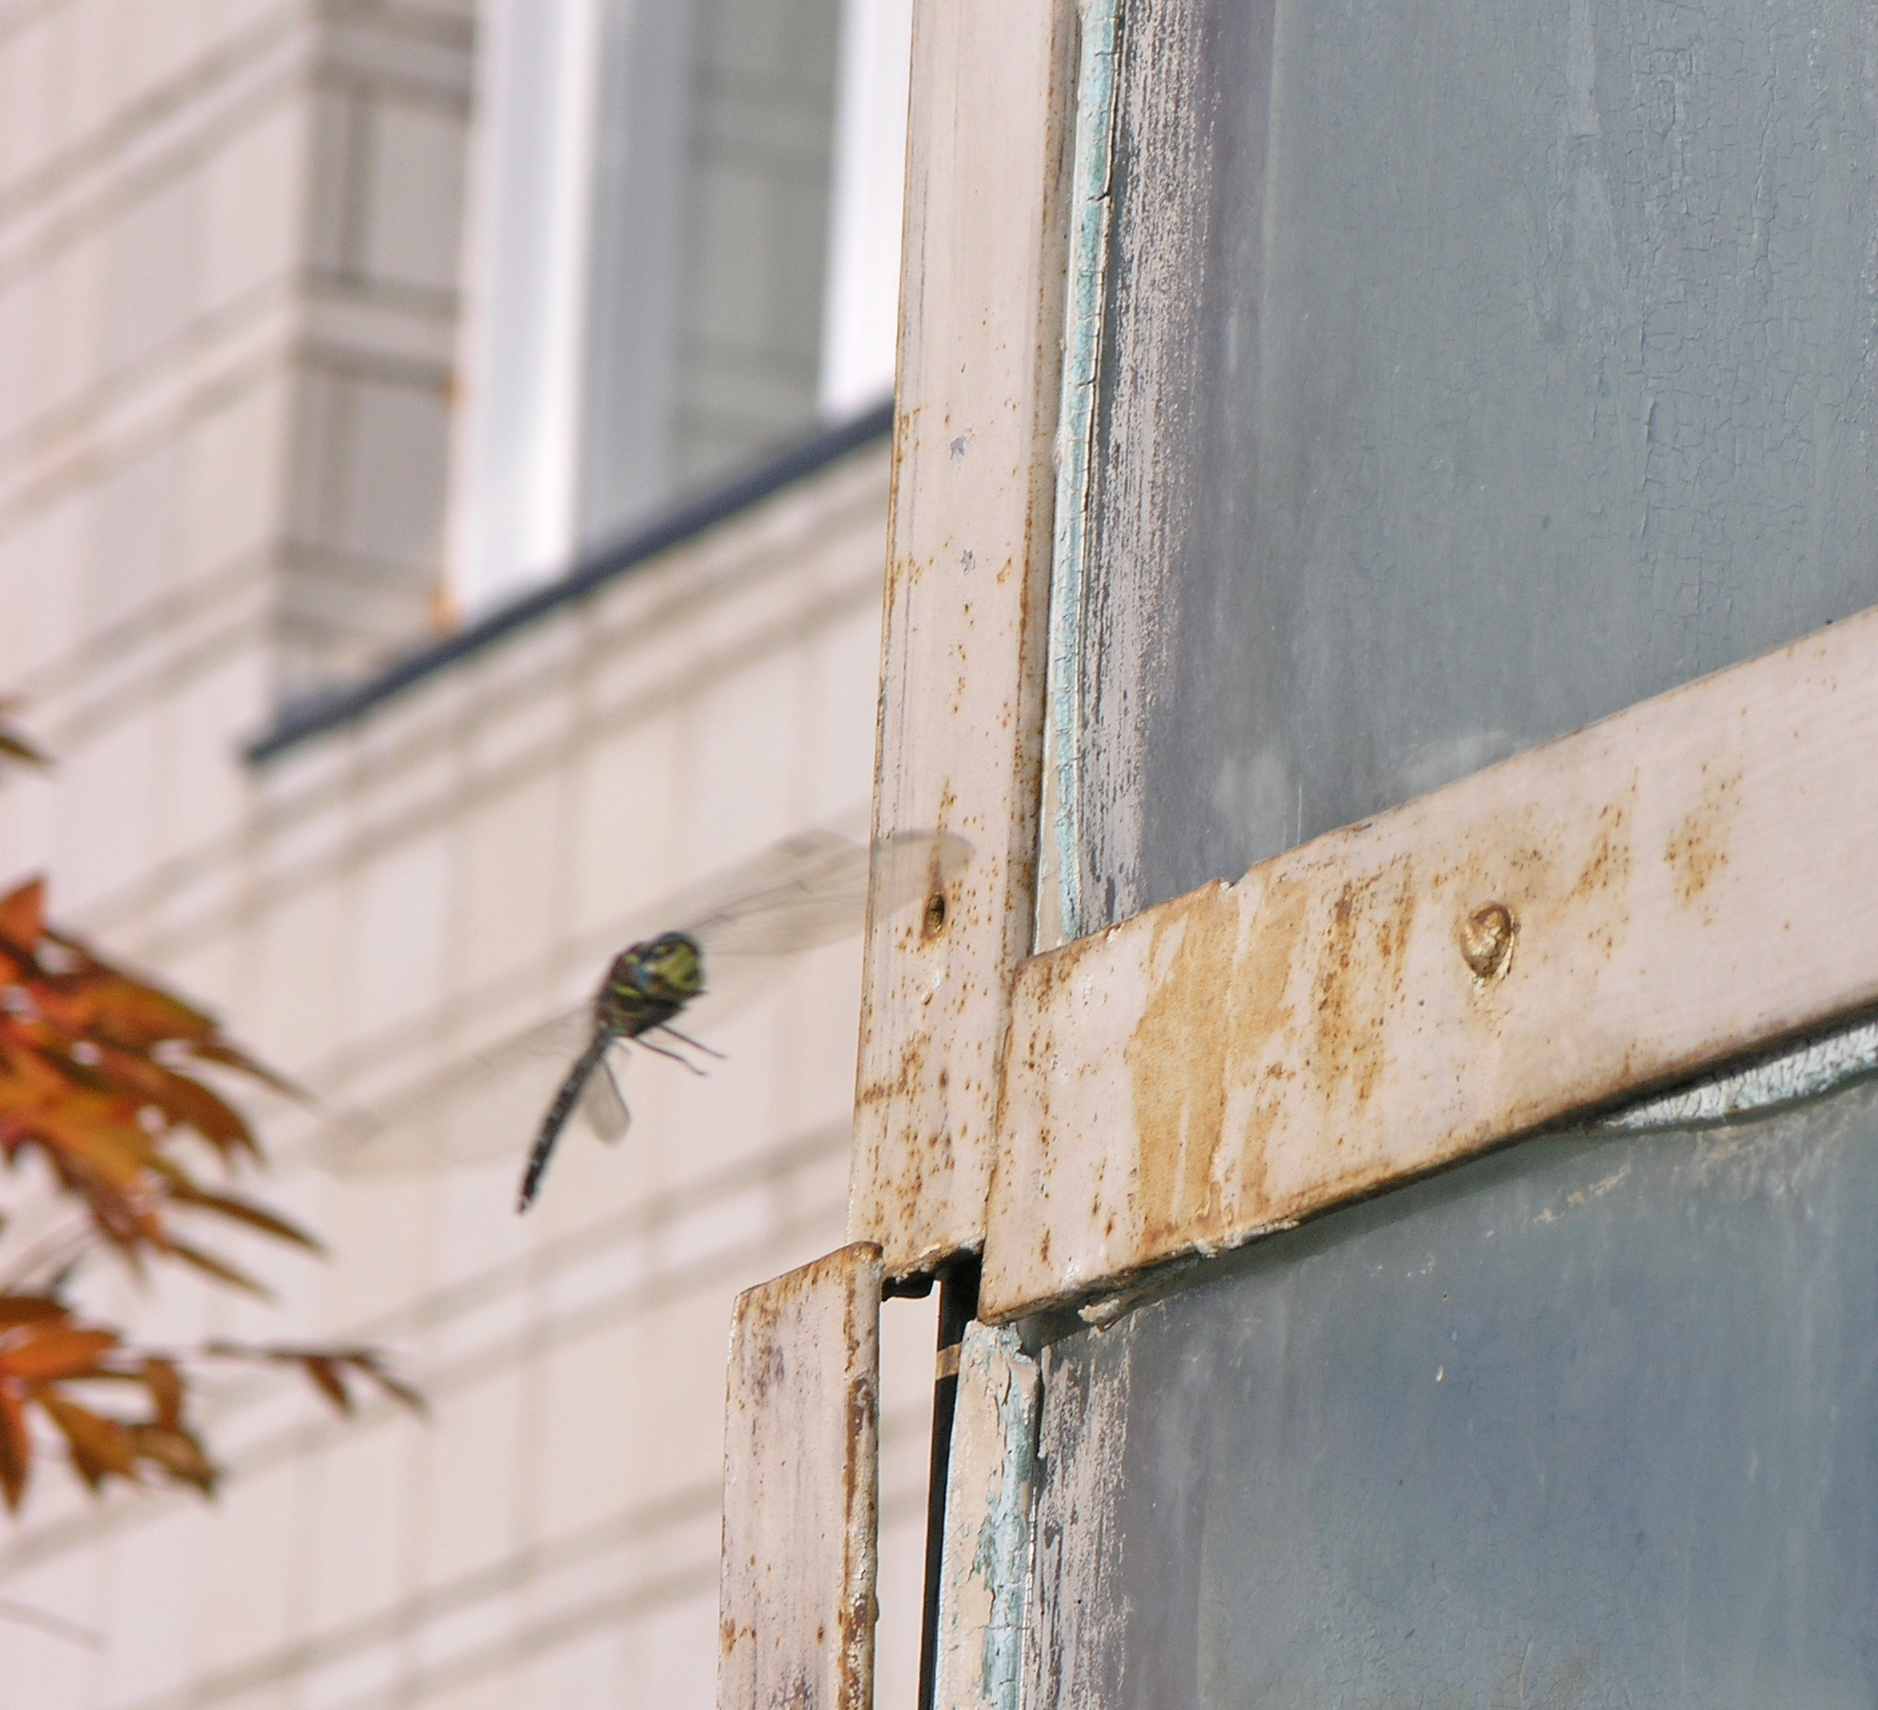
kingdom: Animalia
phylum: Arthropoda
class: Insecta
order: Odonata
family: Aeshnidae
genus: Aeshna
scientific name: Aeshna juncea
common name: Moorland hawker
